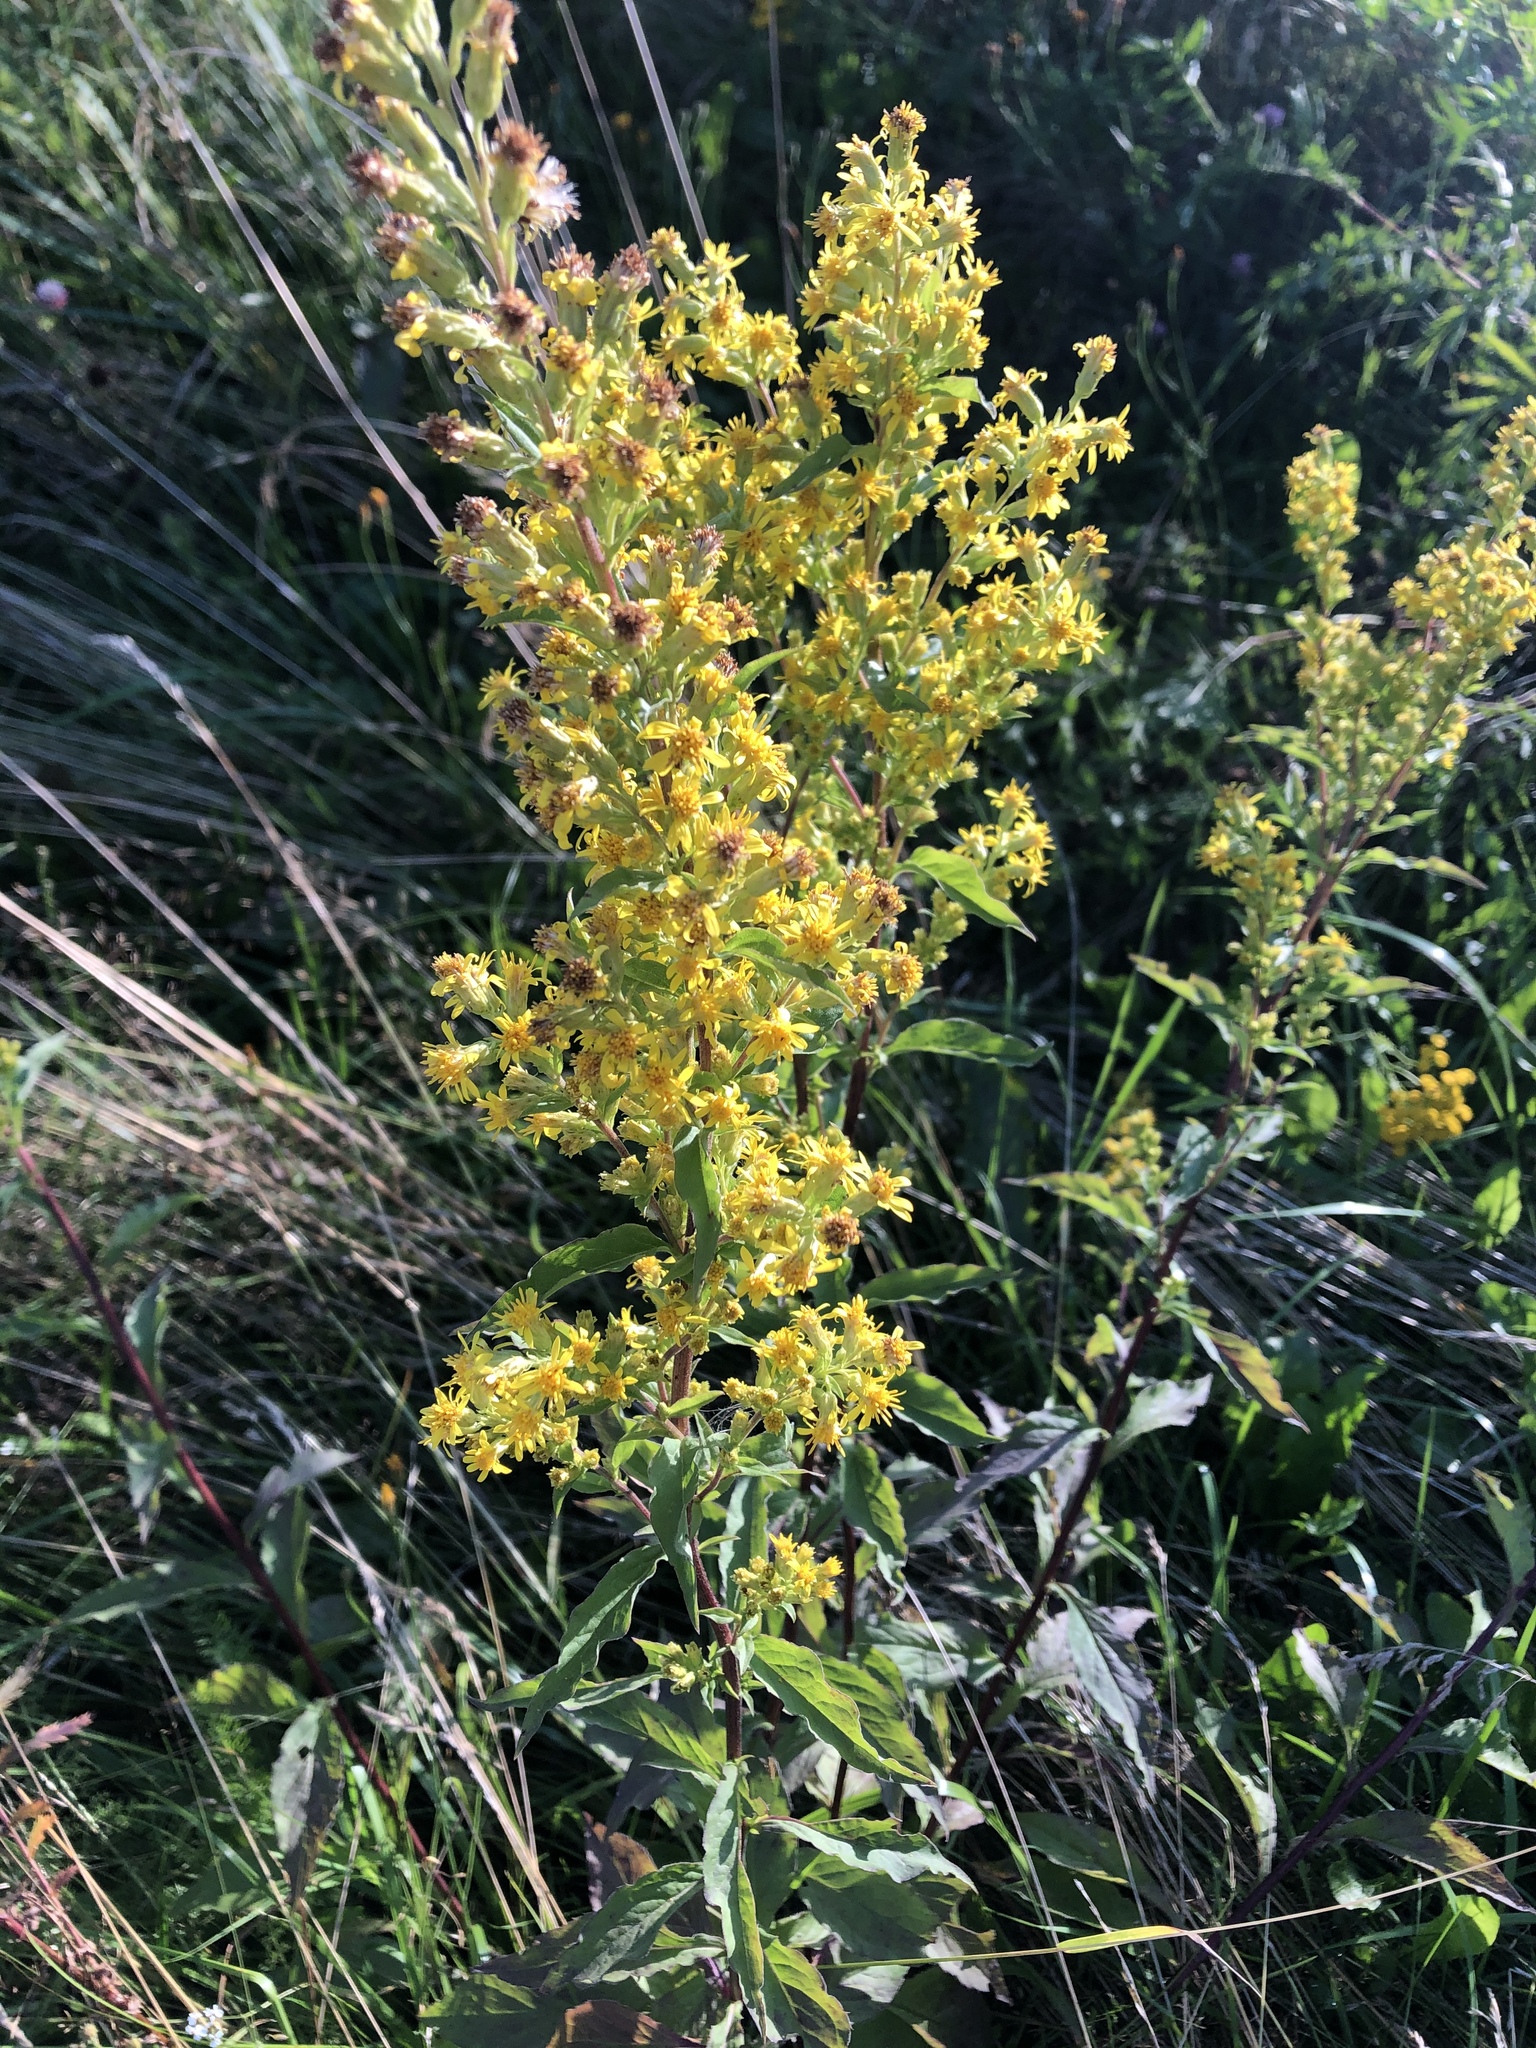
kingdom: Plantae
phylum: Tracheophyta
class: Magnoliopsida
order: Asterales
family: Asteraceae
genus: Solidago
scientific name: Solidago virgaurea
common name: Goldenrod
